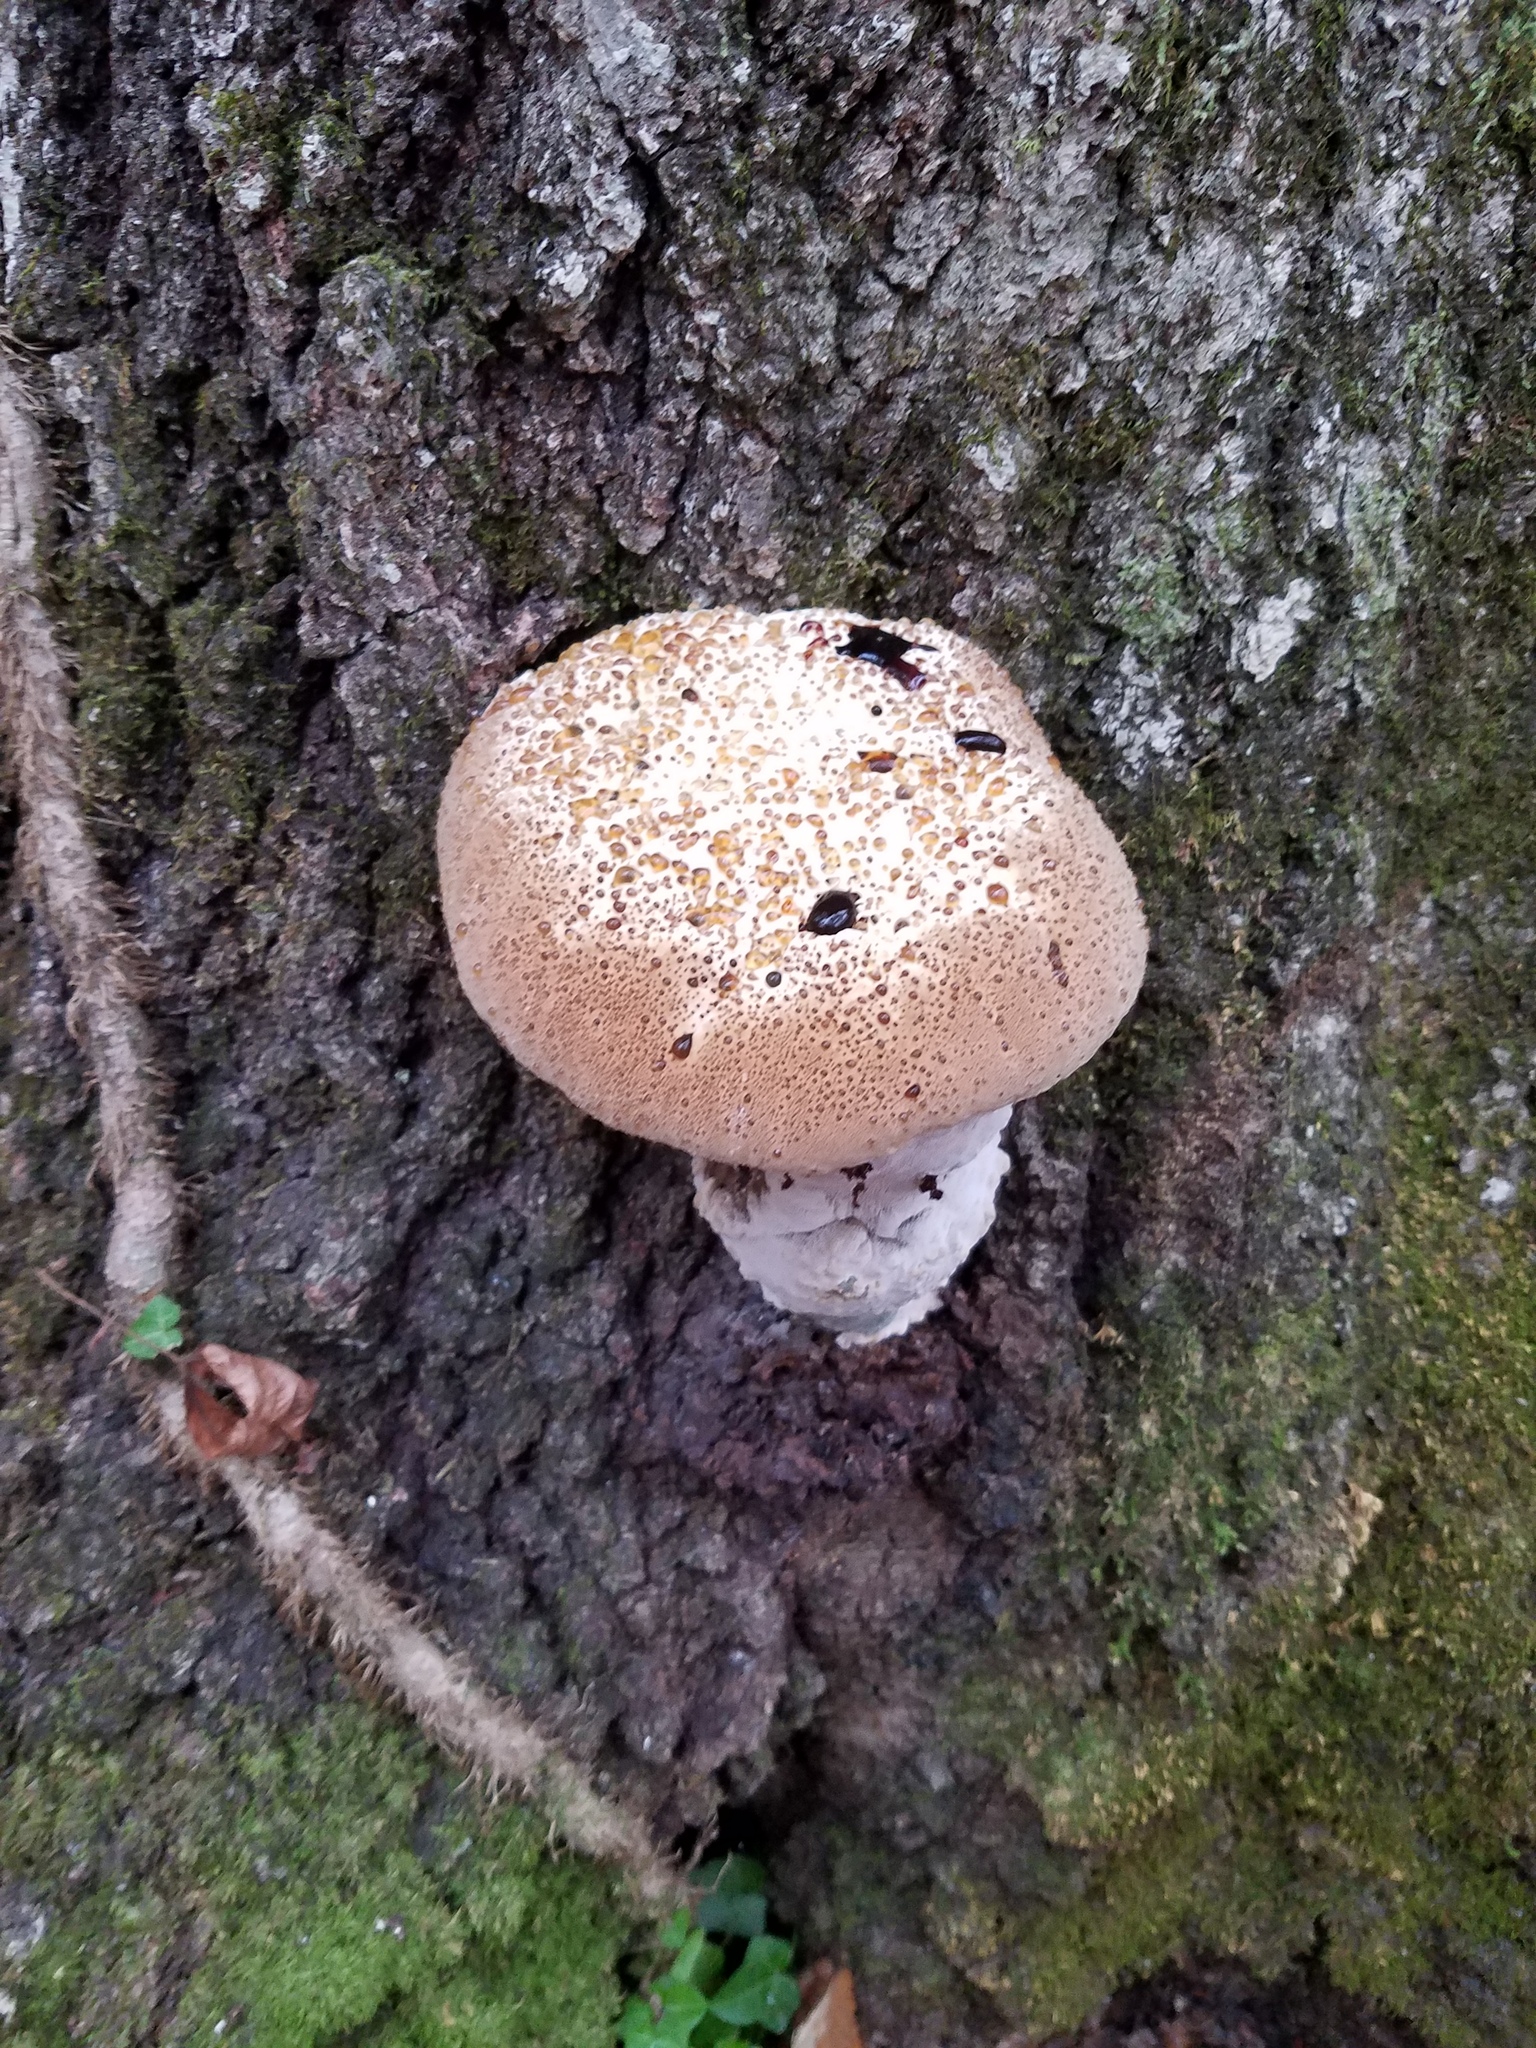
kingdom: Fungi
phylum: Basidiomycota
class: Agaricomycetes
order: Hymenochaetales
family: Hymenochaetaceae
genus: Pseudoinonotus
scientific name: Pseudoinonotus dryadeus
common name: Oak bracket
